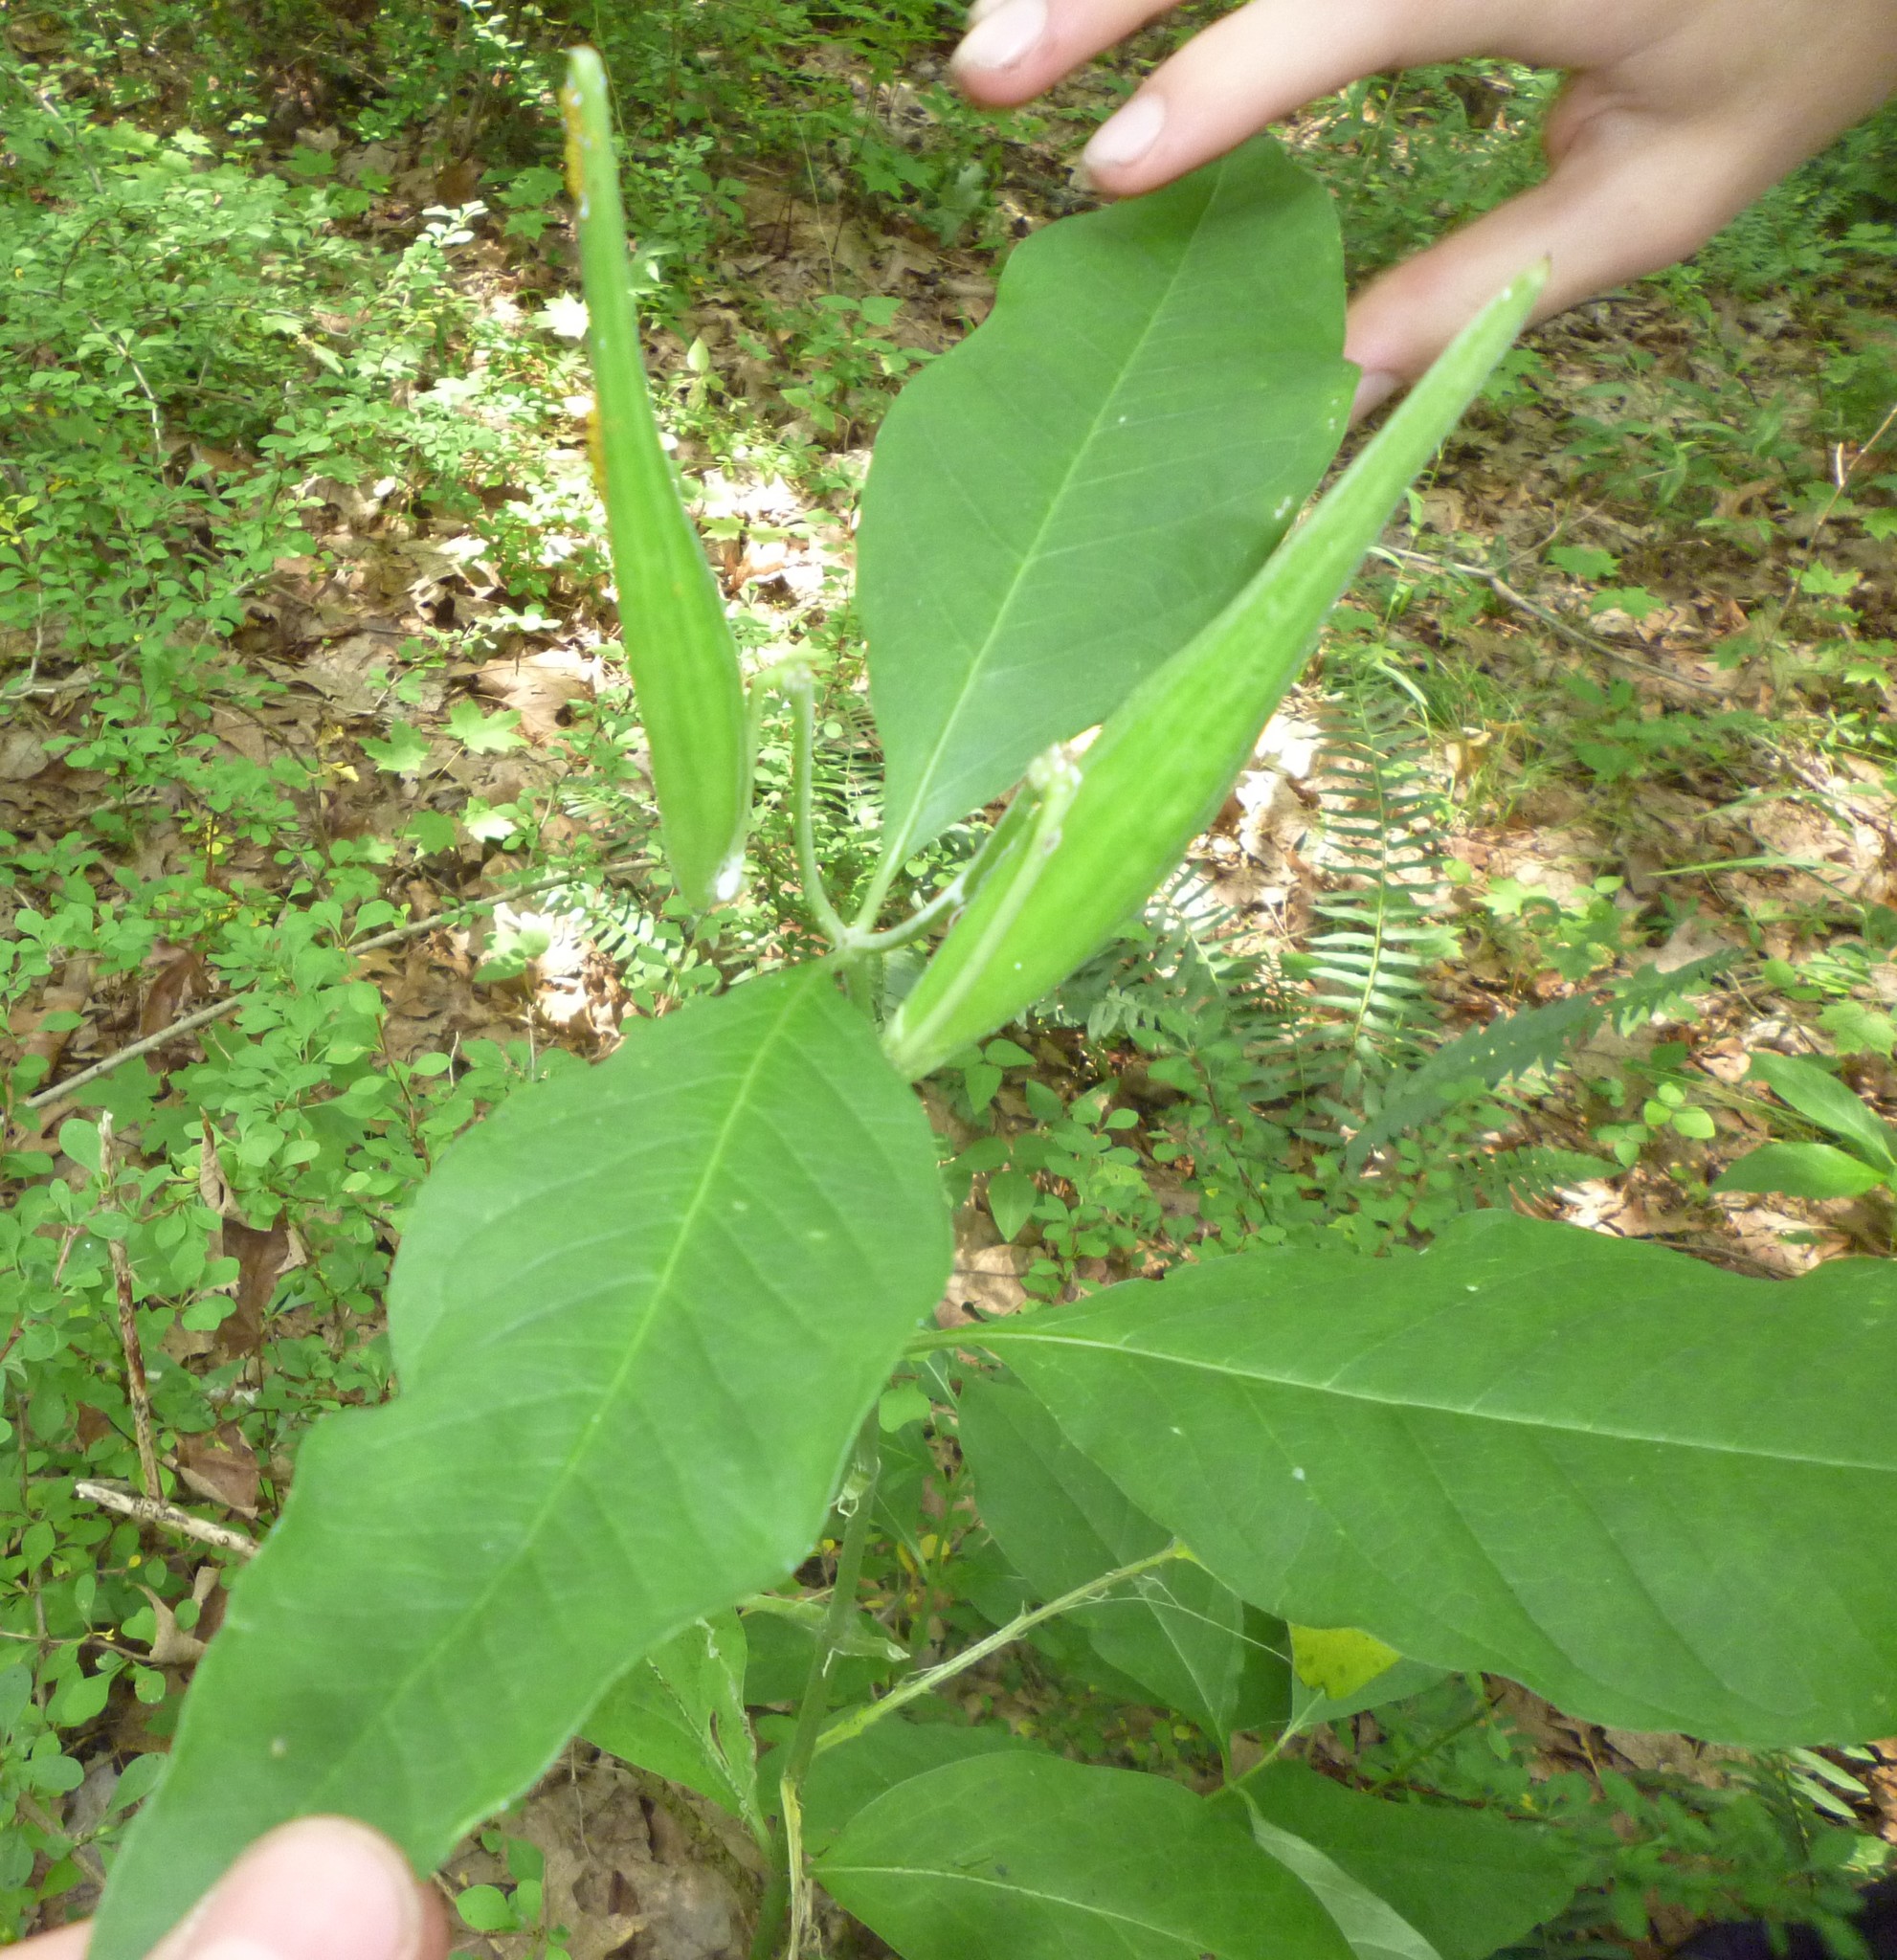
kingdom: Plantae
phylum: Tracheophyta
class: Magnoliopsida
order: Gentianales
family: Apocynaceae
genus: Asclepias
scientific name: Asclepias exaltata
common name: Poke milkweed
